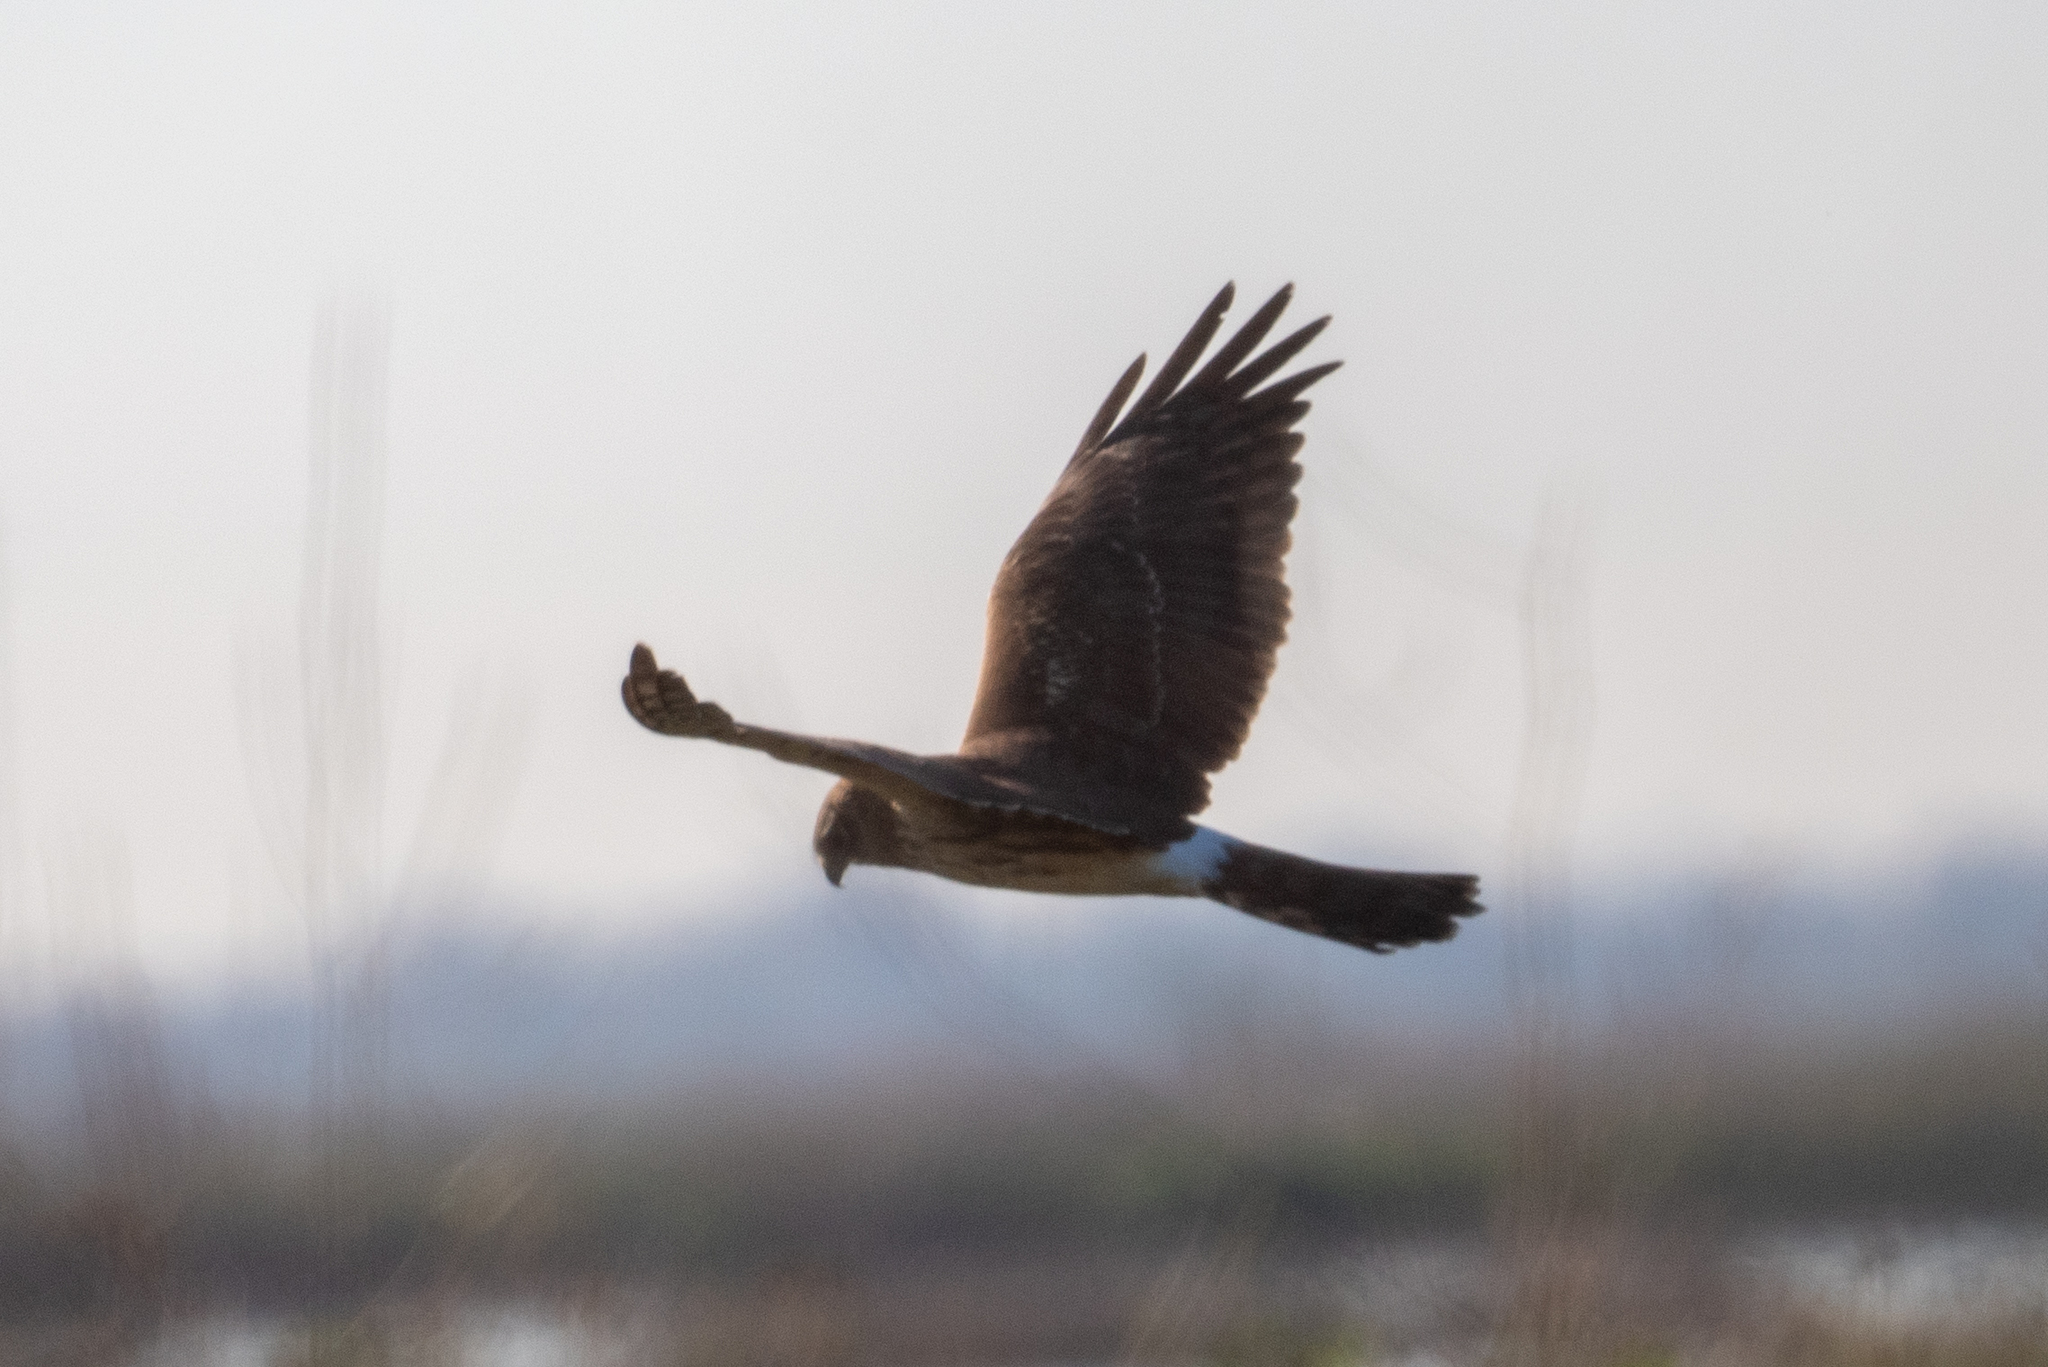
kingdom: Animalia
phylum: Chordata
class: Aves
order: Accipitriformes
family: Accipitridae
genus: Circus
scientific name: Circus cyaneus
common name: Hen harrier
